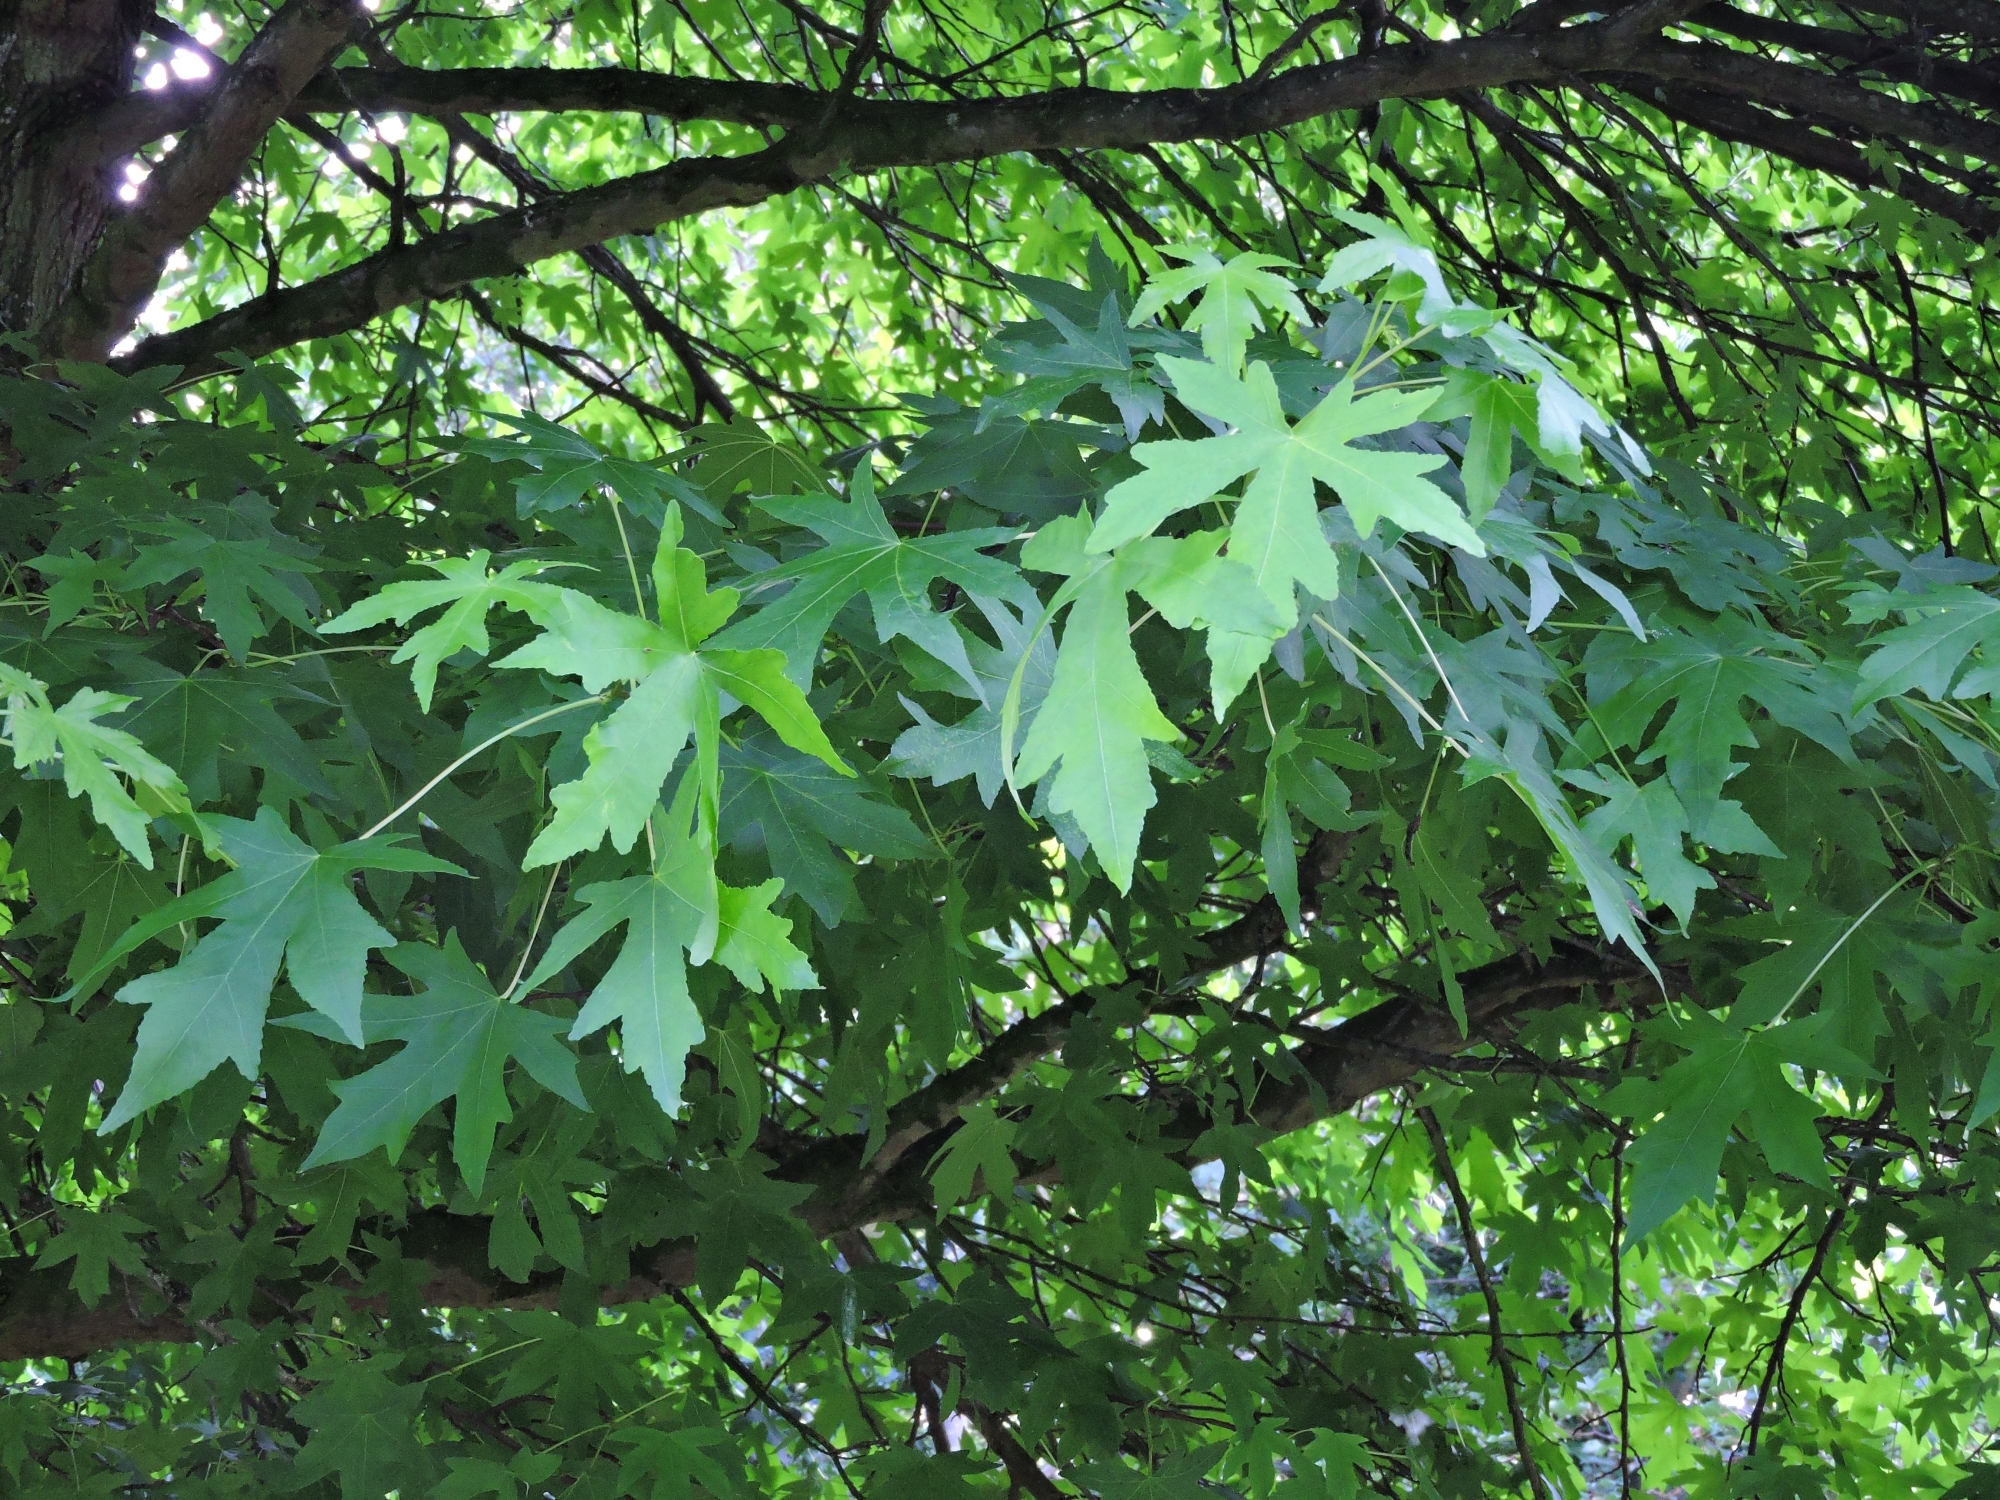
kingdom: Plantae
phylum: Tracheophyta
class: Magnoliopsida
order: Sapindales
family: Sapindaceae
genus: Acer
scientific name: Acer saccharinum
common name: Silver maple
